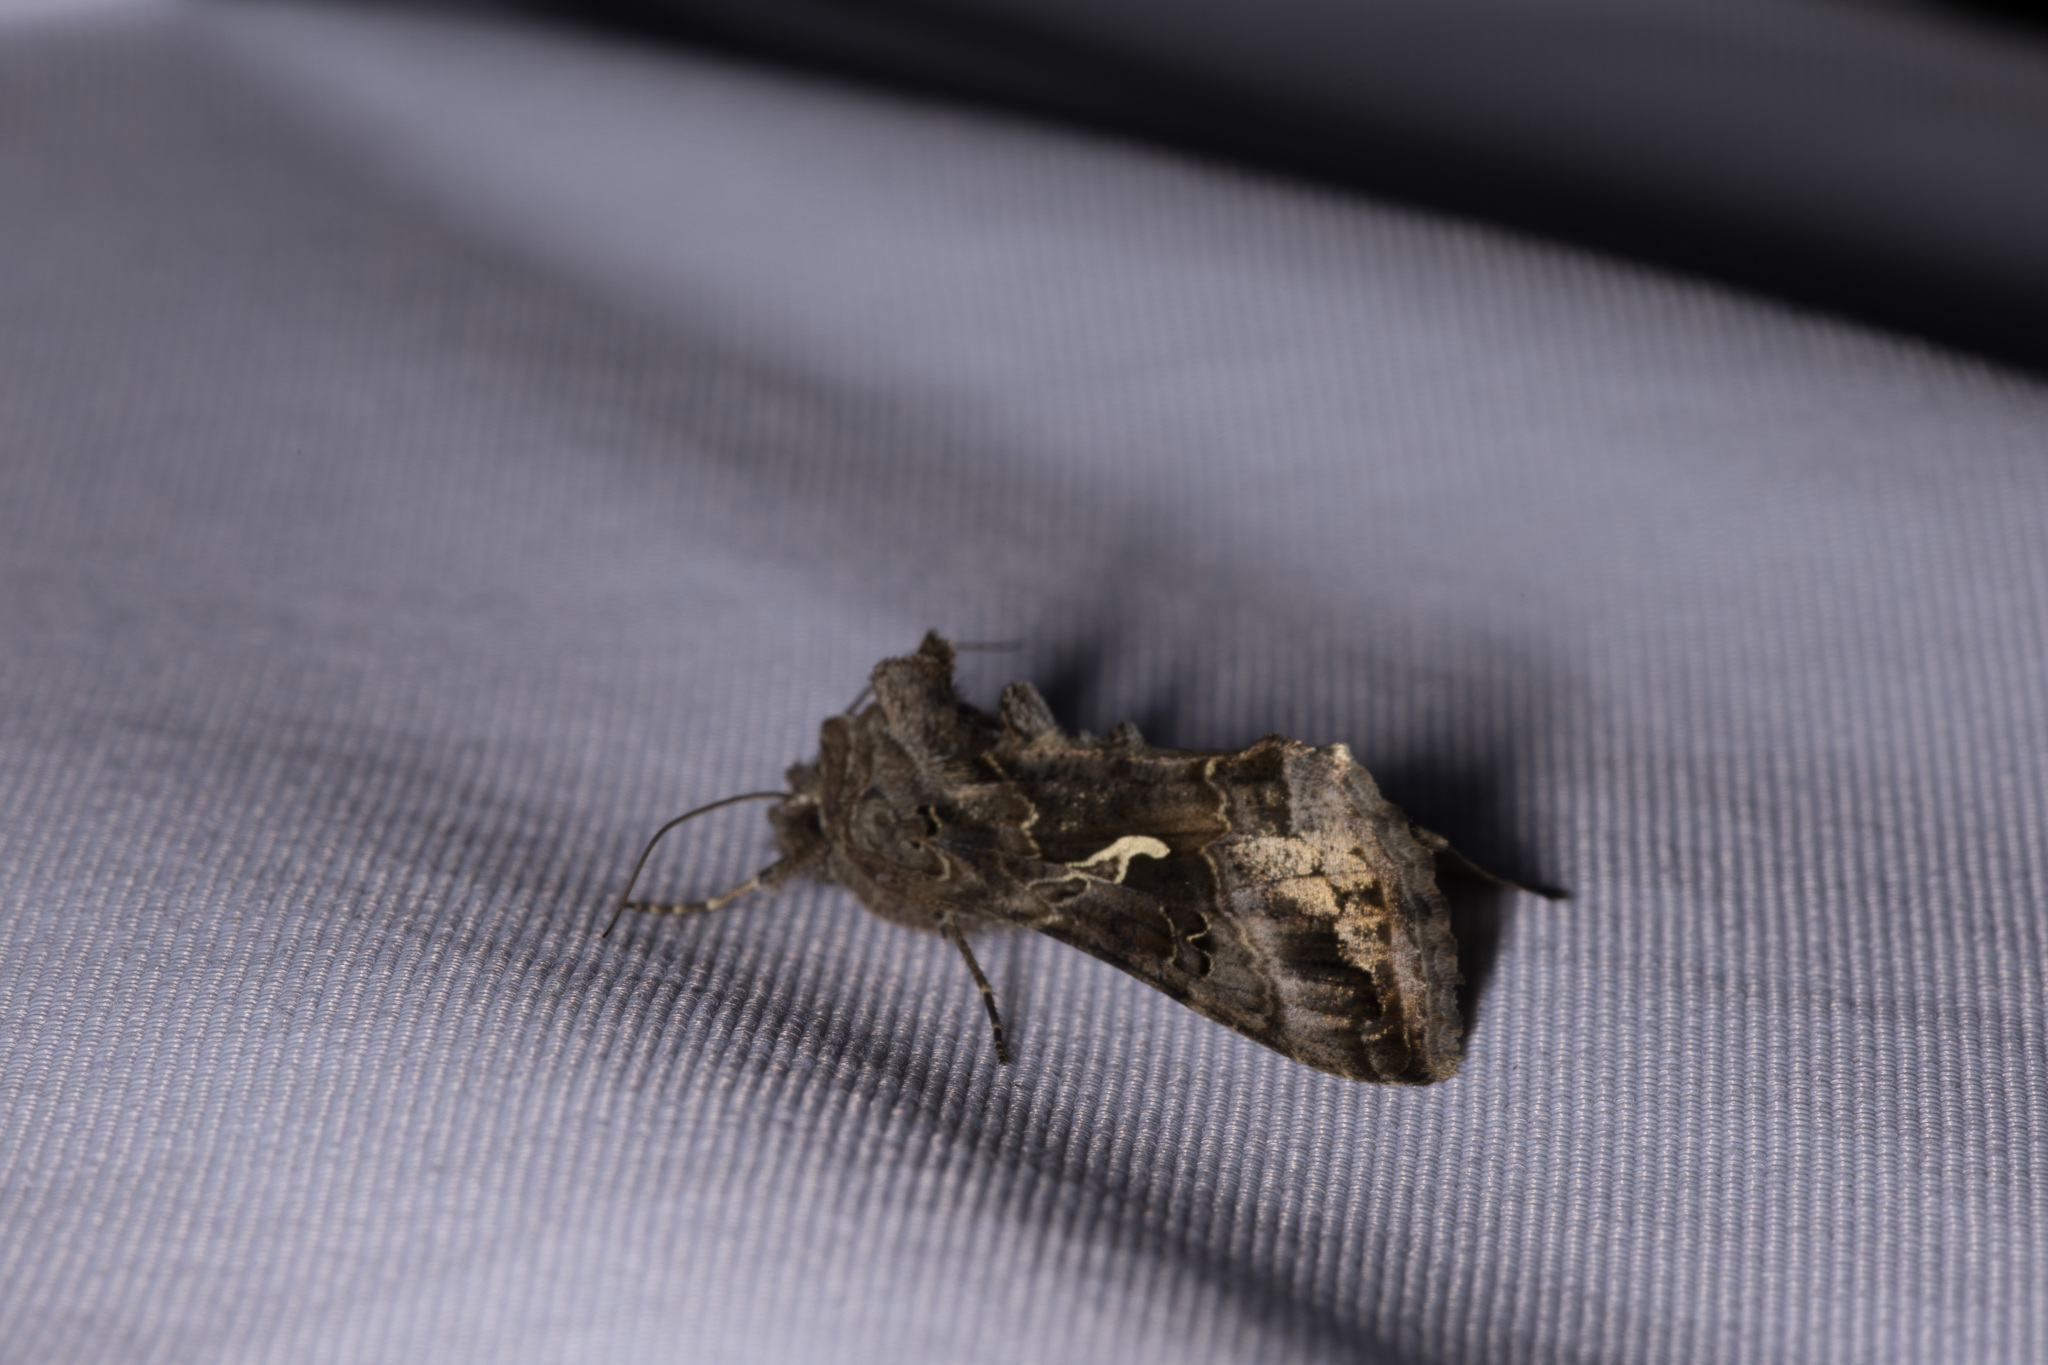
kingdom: Animalia
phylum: Arthropoda
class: Insecta
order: Lepidoptera
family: Noctuidae
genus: Autographa
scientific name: Autographa gamma
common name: Silver y
